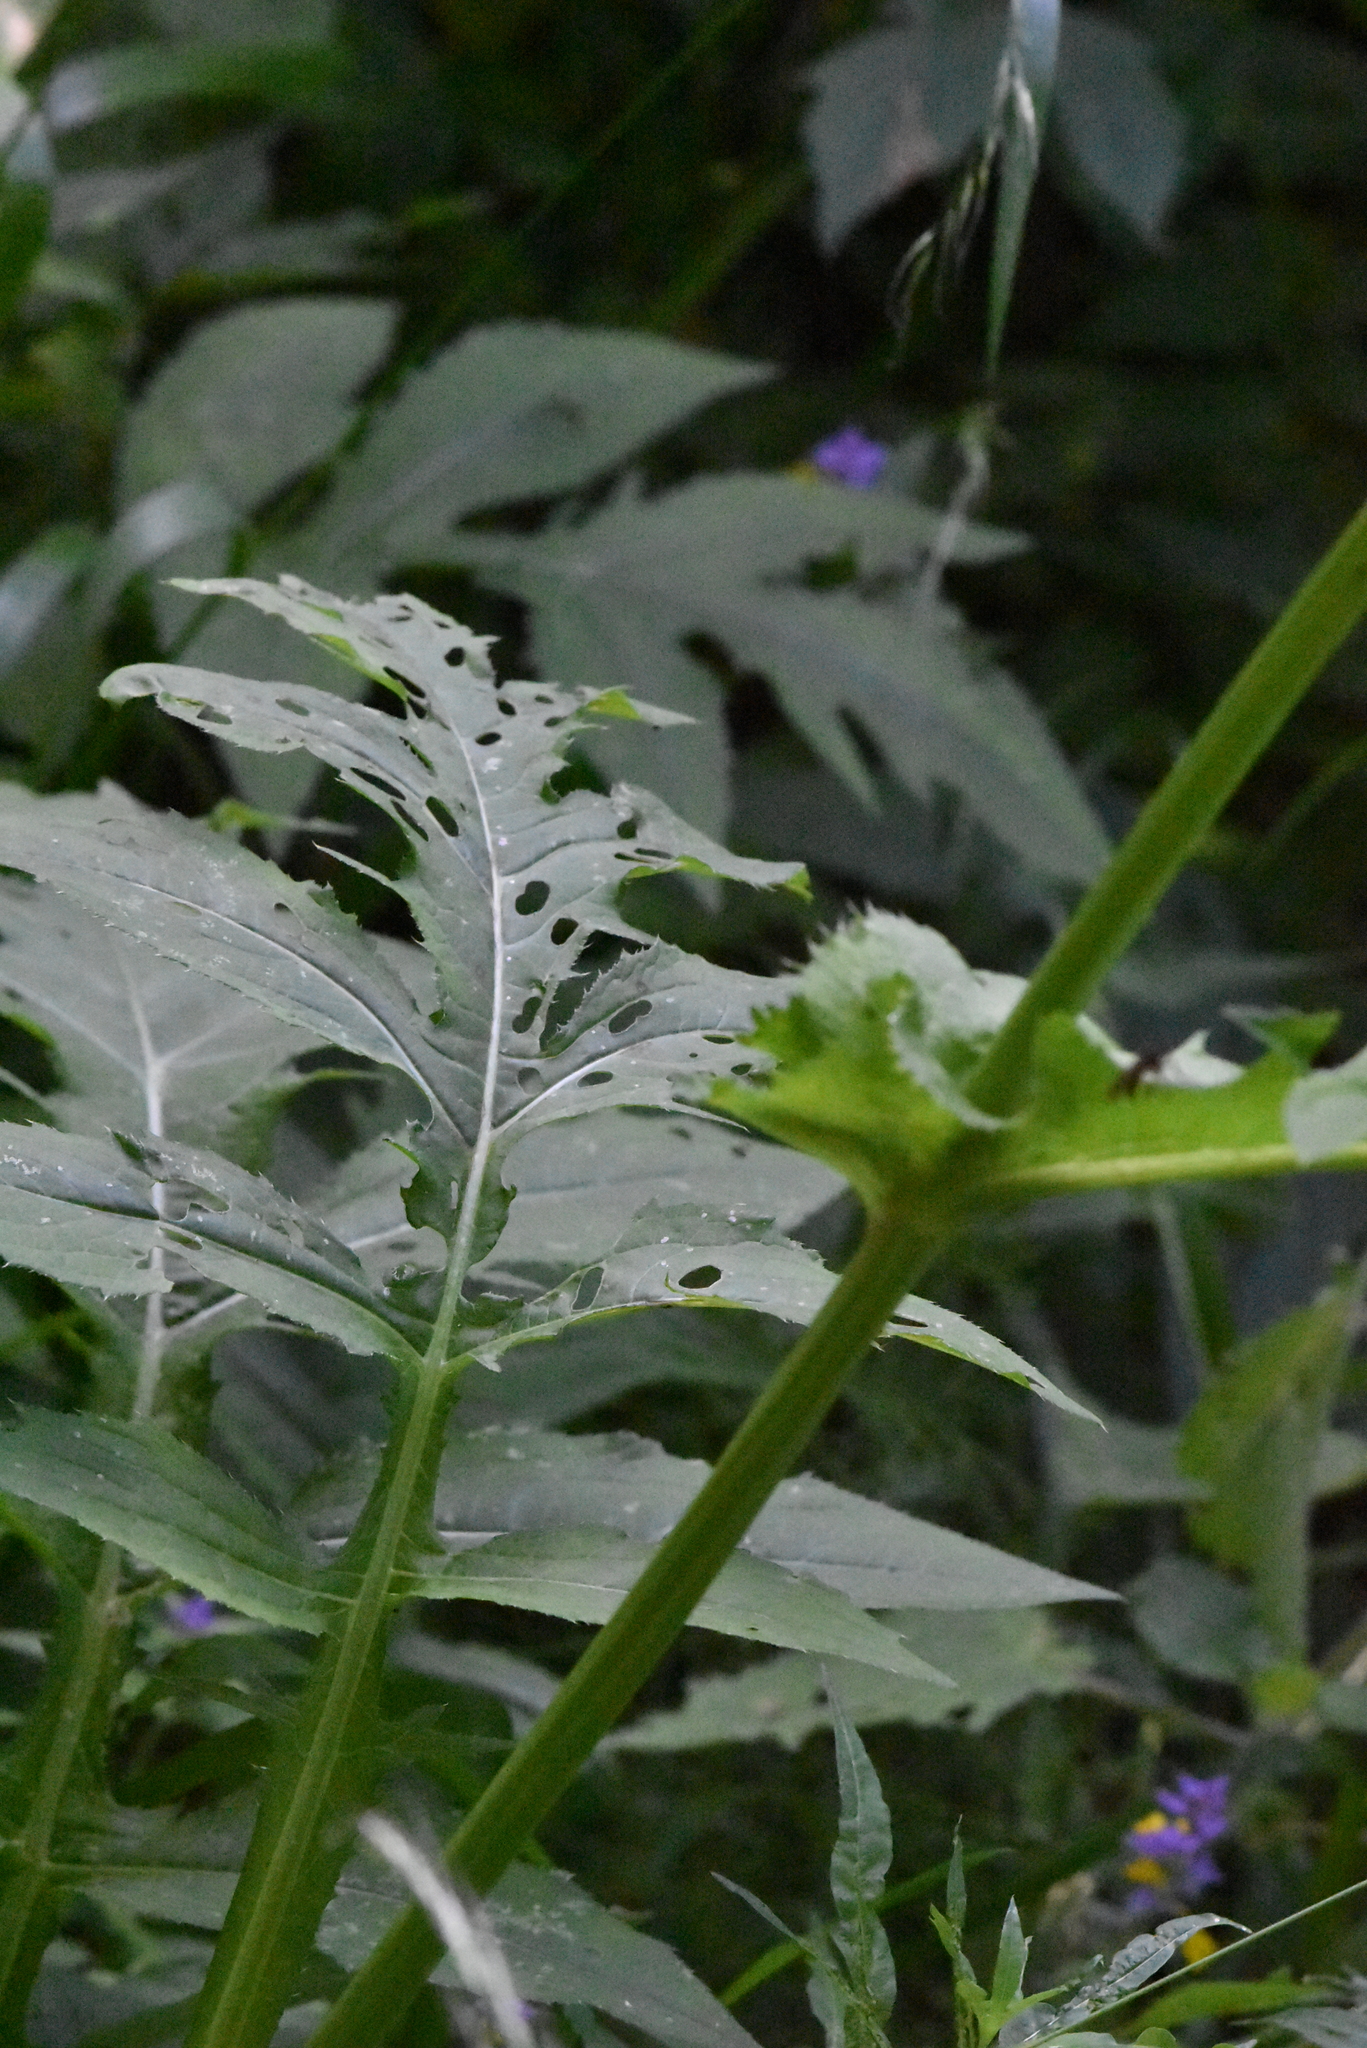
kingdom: Plantae
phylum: Tracheophyta
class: Magnoliopsida
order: Asterales
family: Asteraceae
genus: Cirsium
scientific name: Cirsium oleraceum
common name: Cabbage thistle
